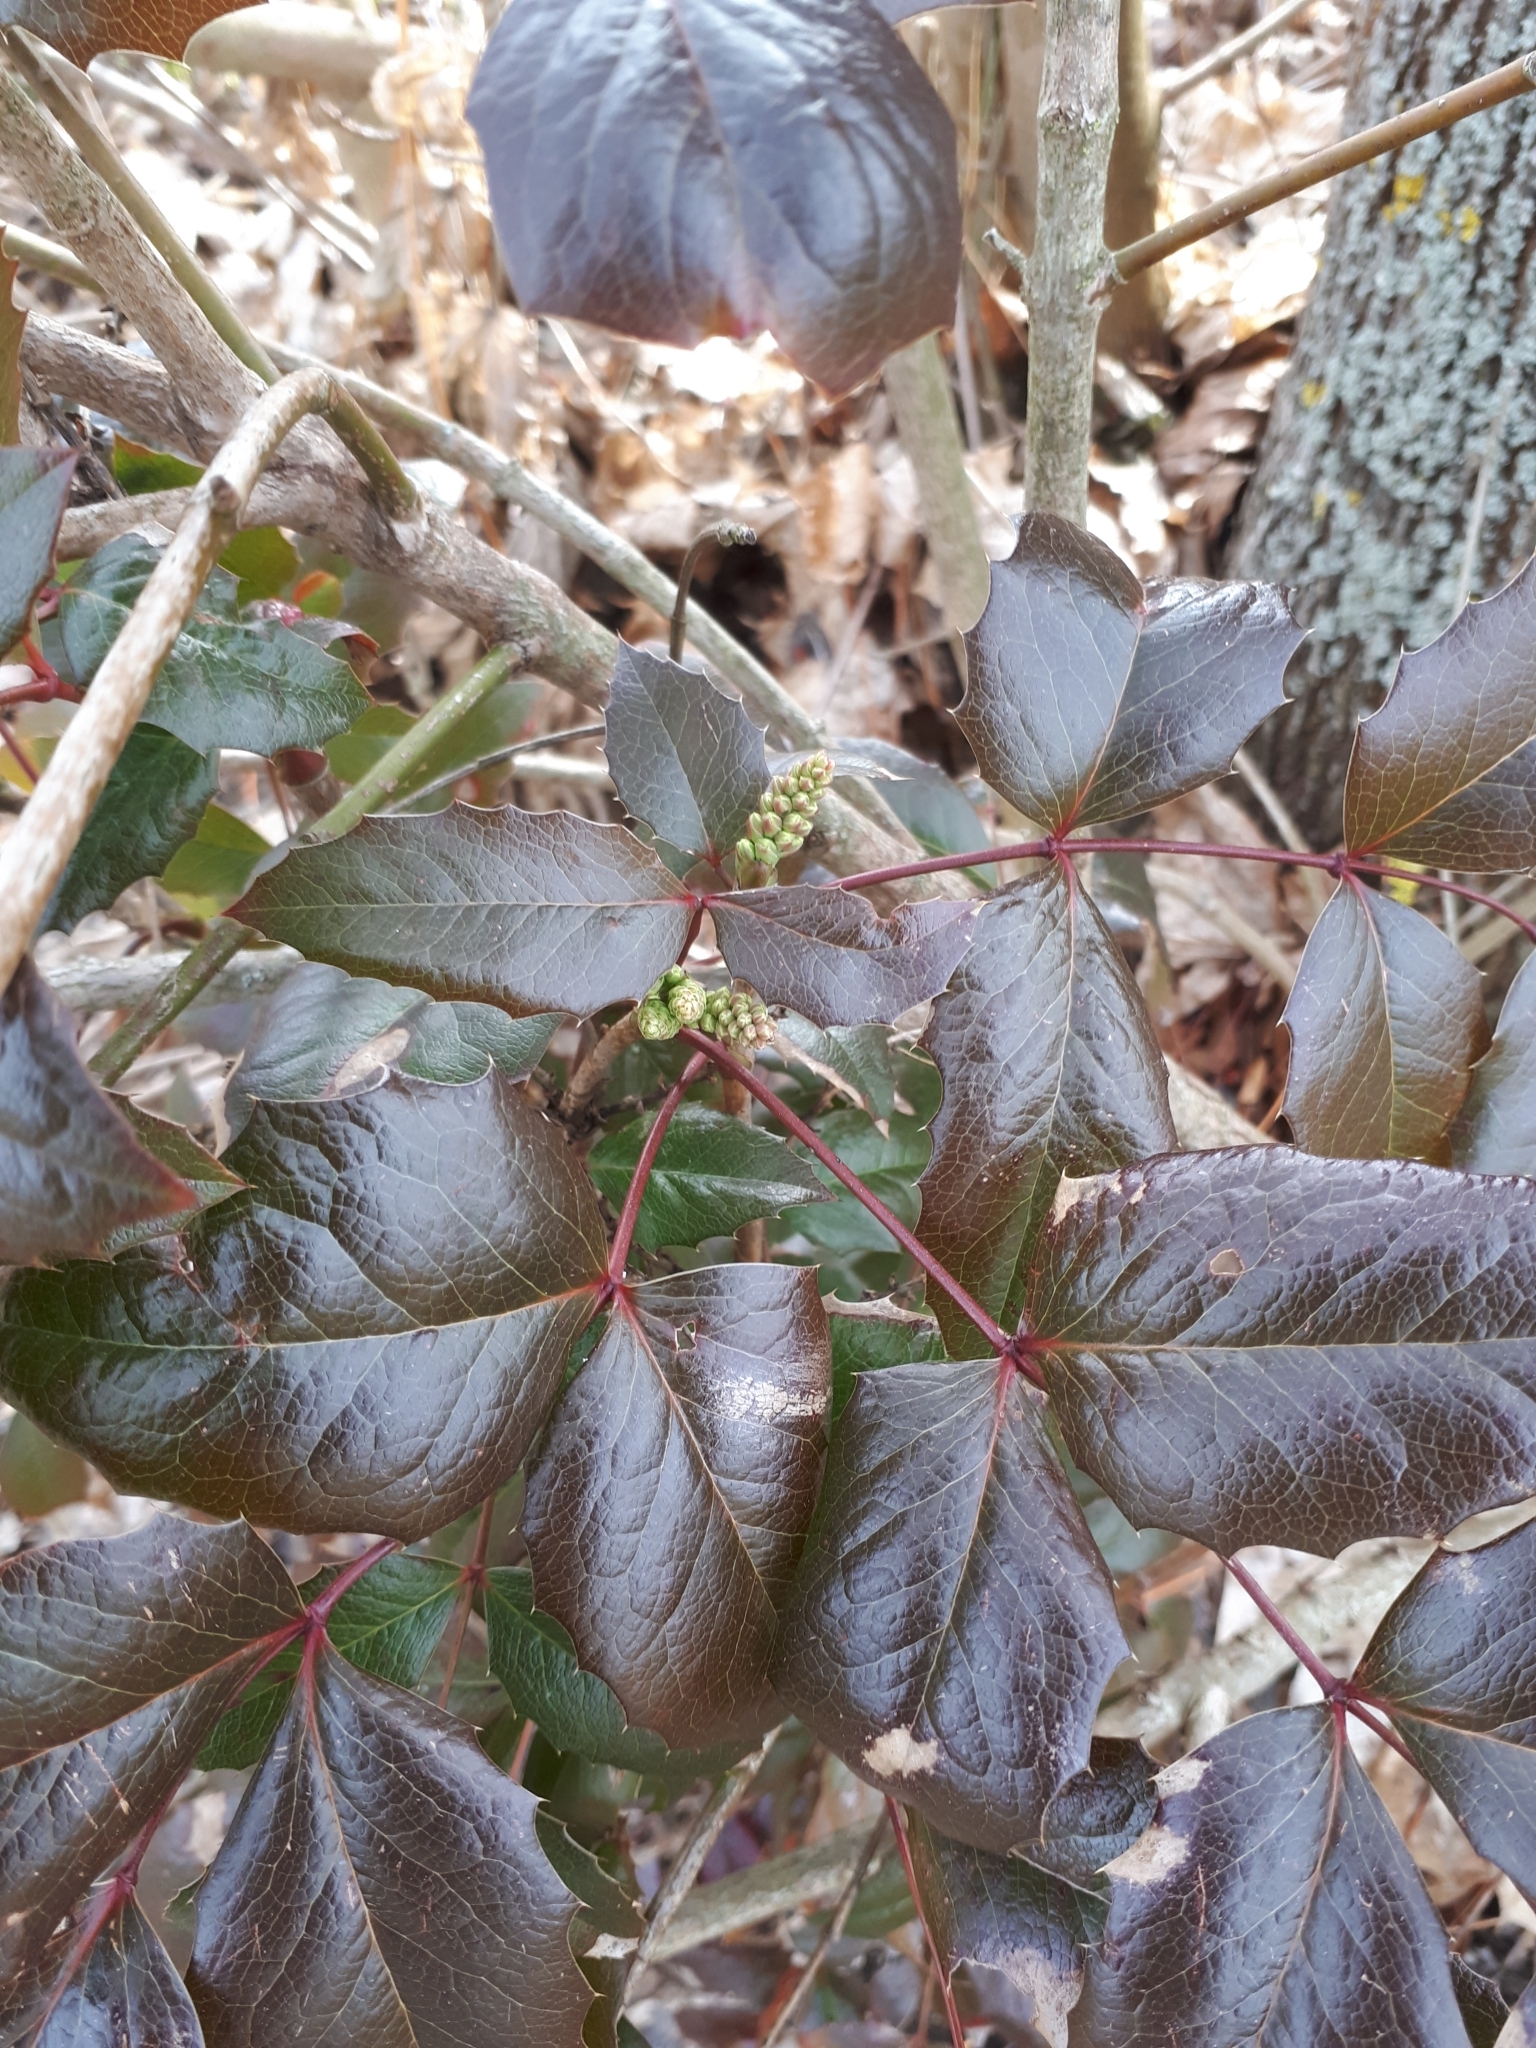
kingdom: Plantae
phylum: Tracheophyta
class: Magnoliopsida
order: Ranunculales
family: Berberidaceae
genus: Mahonia
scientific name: Mahonia aquifolium
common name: Oregon-grape
